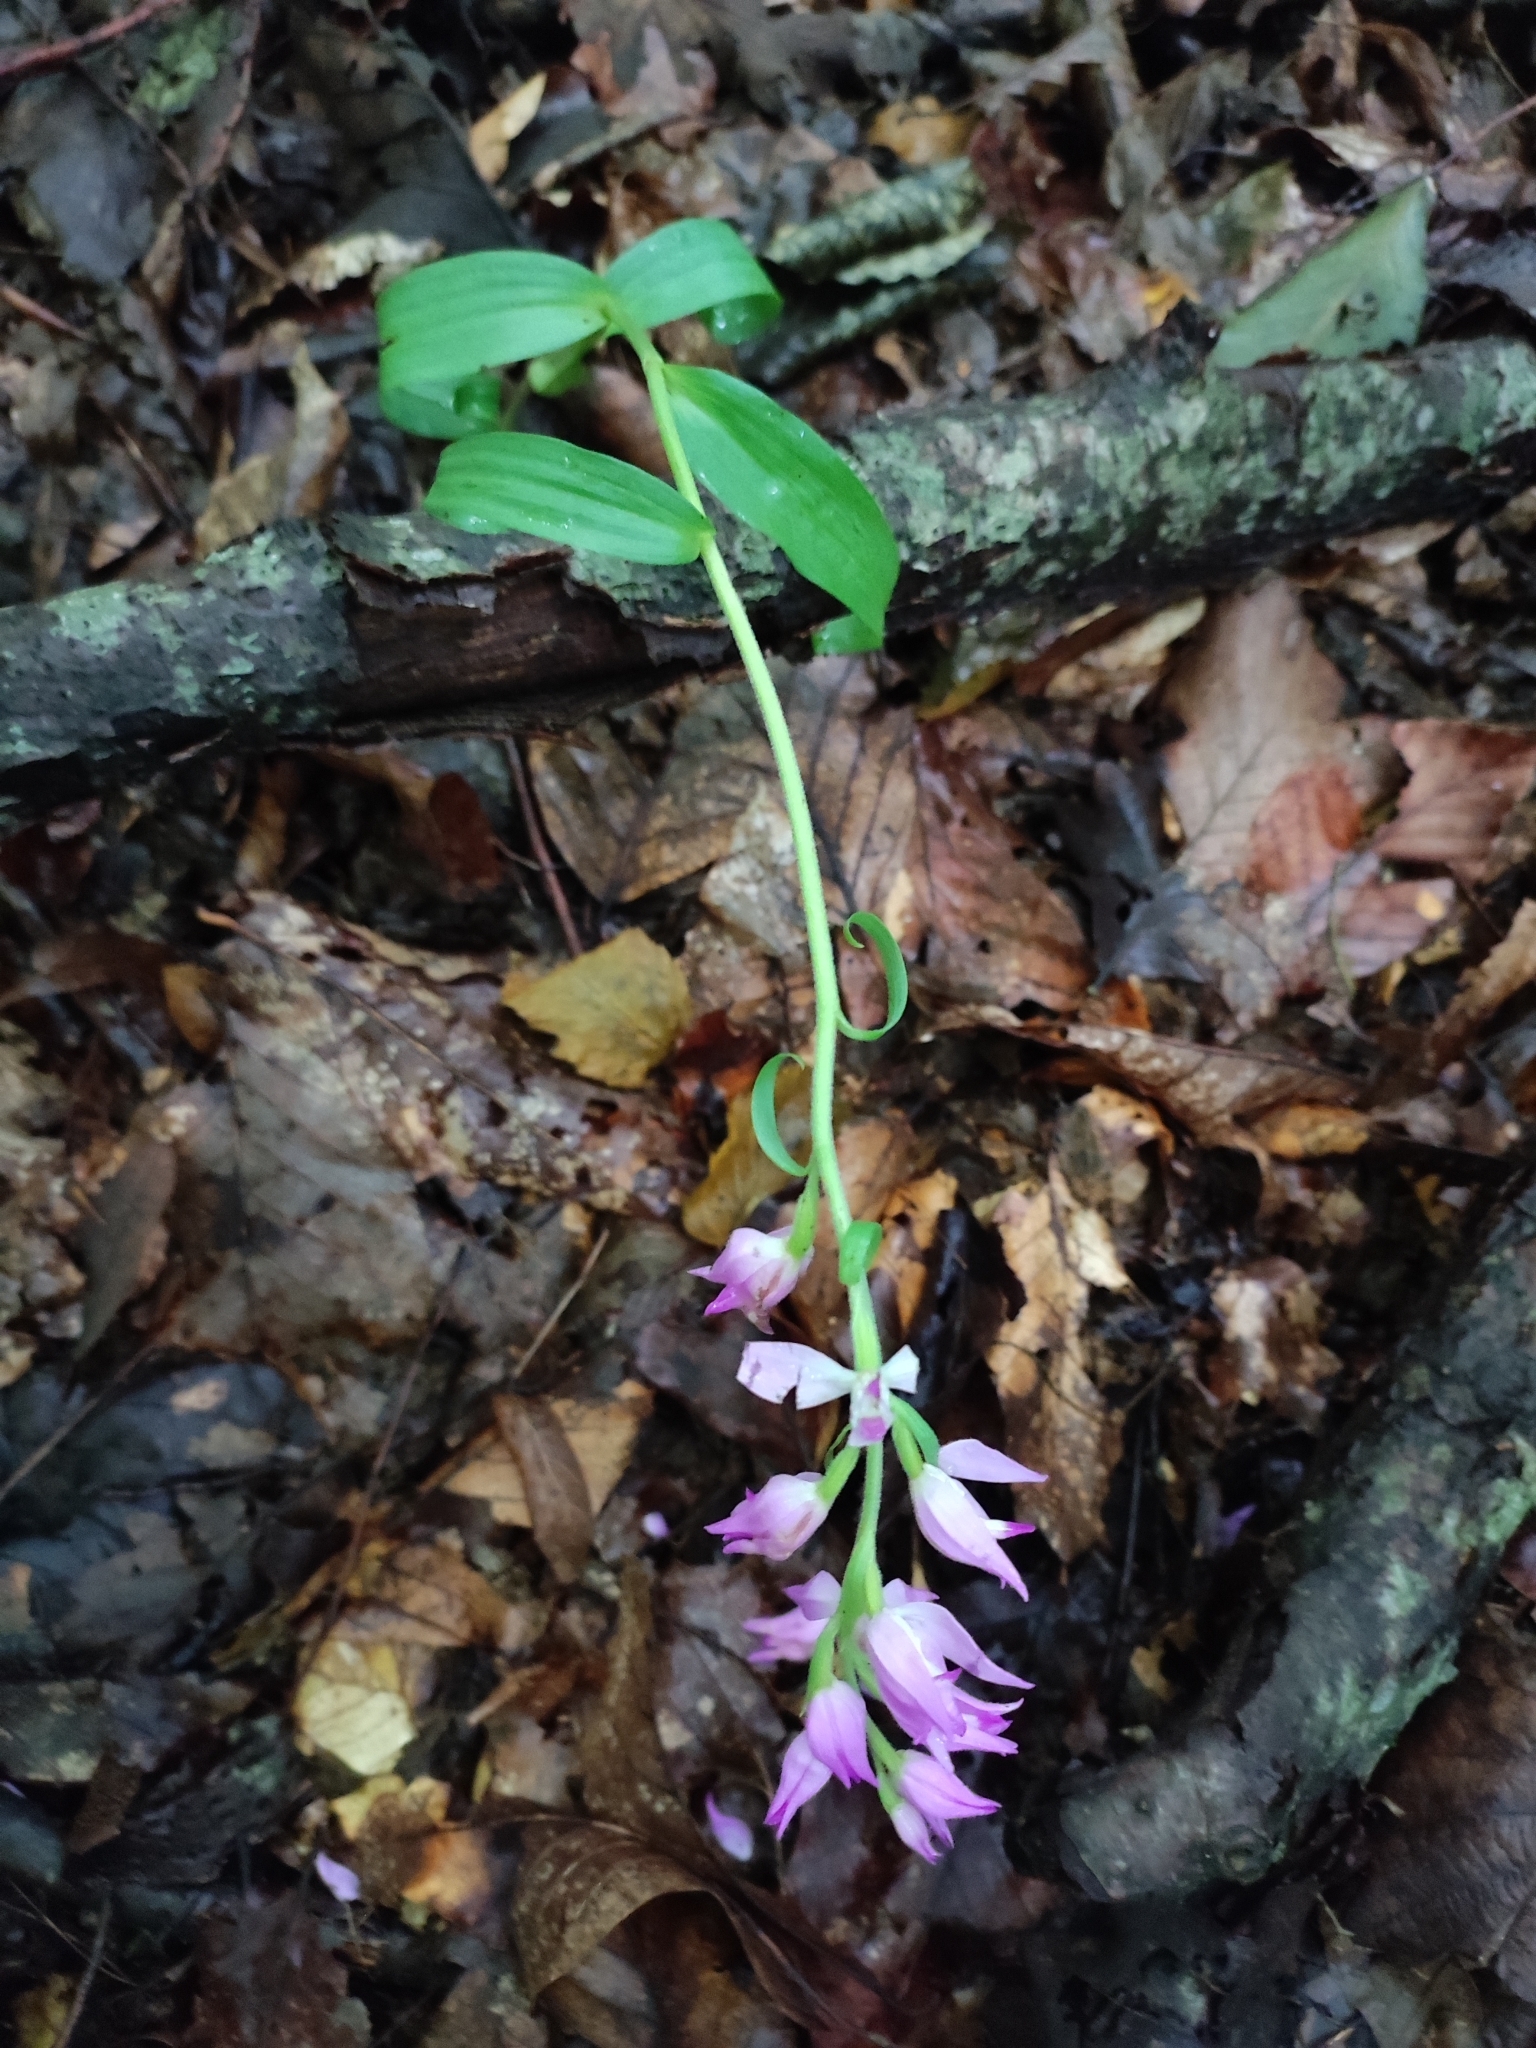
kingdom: Plantae
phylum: Tracheophyta
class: Liliopsida
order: Asparagales
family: Orchidaceae
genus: Cephalanthera
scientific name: Cephalanthera rubra
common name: Red helleborine
